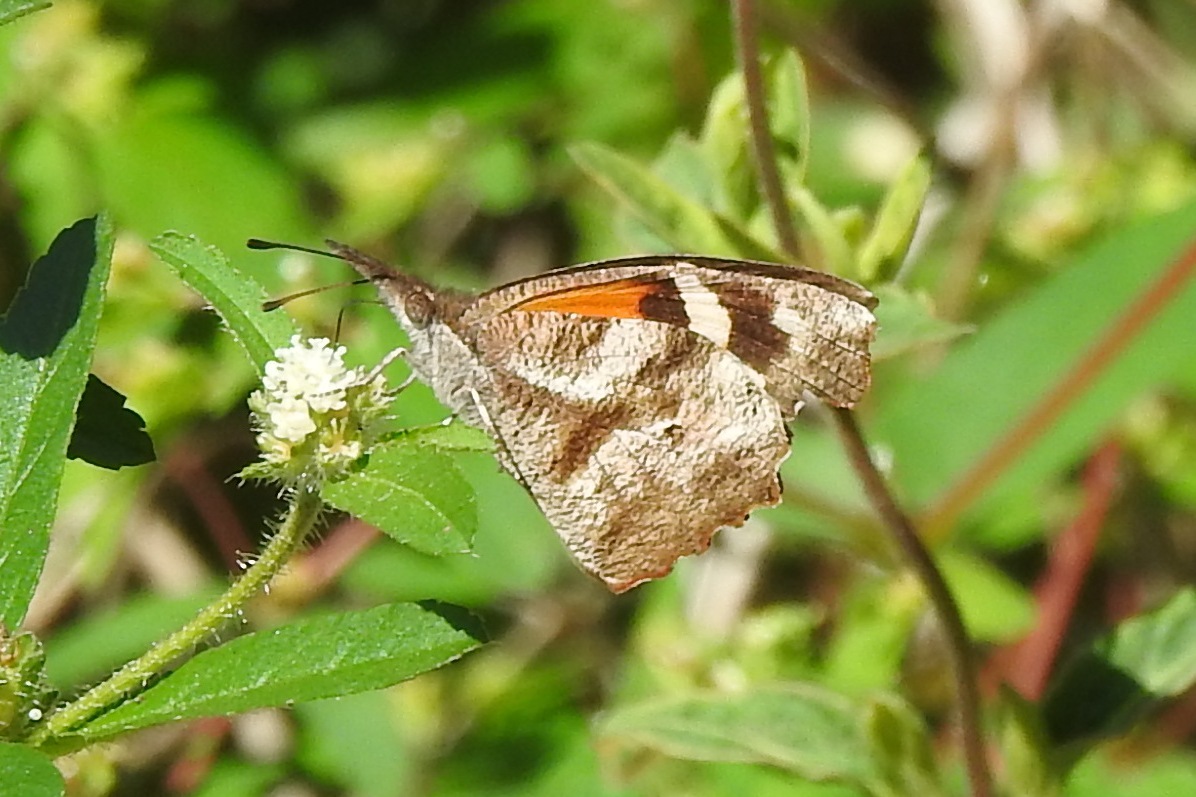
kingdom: Animalia
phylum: Arthropoda
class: Insecta
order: Lepidoptera
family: Nymphalidae
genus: Libytheana
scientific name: Libytheana carinenta
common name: American snout
